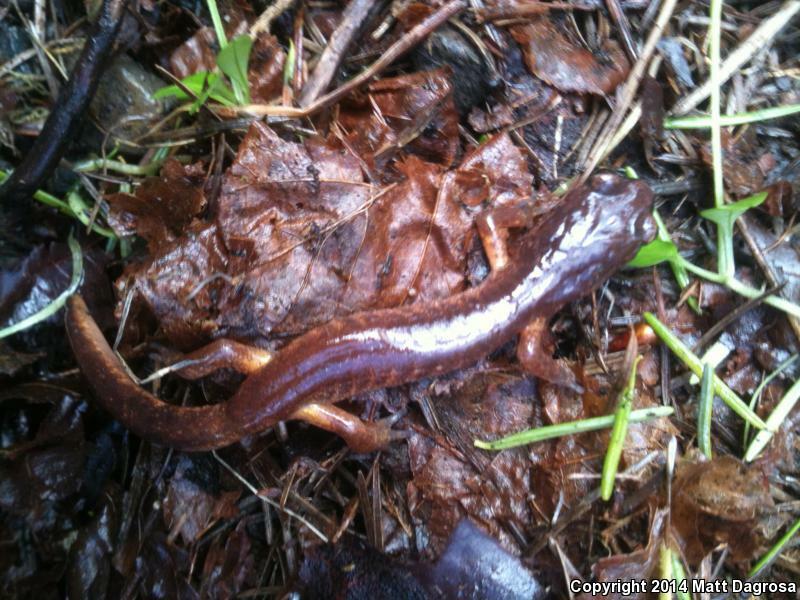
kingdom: Animalia
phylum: Chordata
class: Amphibia
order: Caudata
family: Plethodontidae
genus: Ensatina
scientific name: Ensatina eschscholtzii
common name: Ensatina
